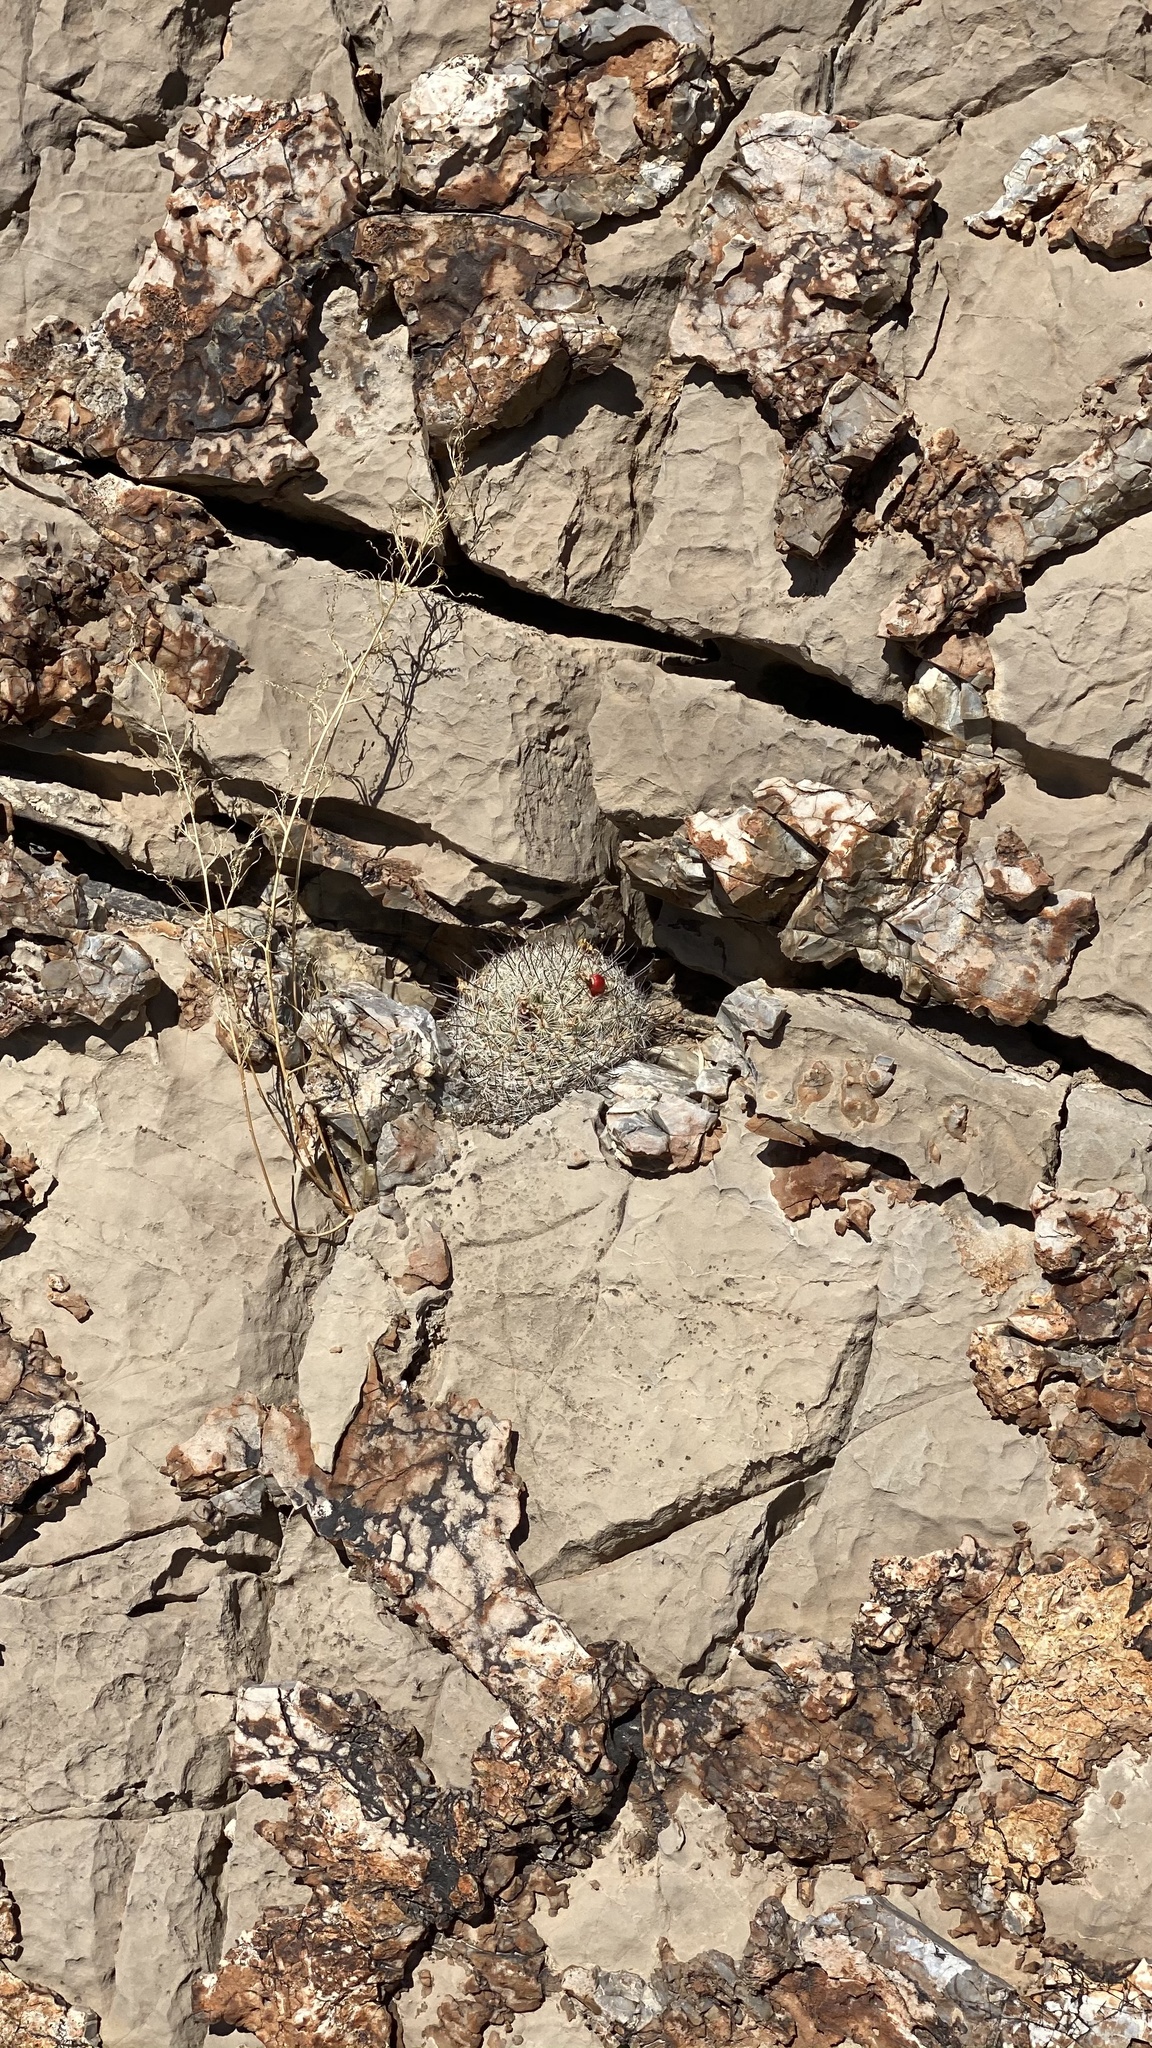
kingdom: Plantae
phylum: Tracheophyta
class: Magnoliopsida
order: Caryophyllales
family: Cactaceae
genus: Cochemiea
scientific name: Cochemiea grahamii
